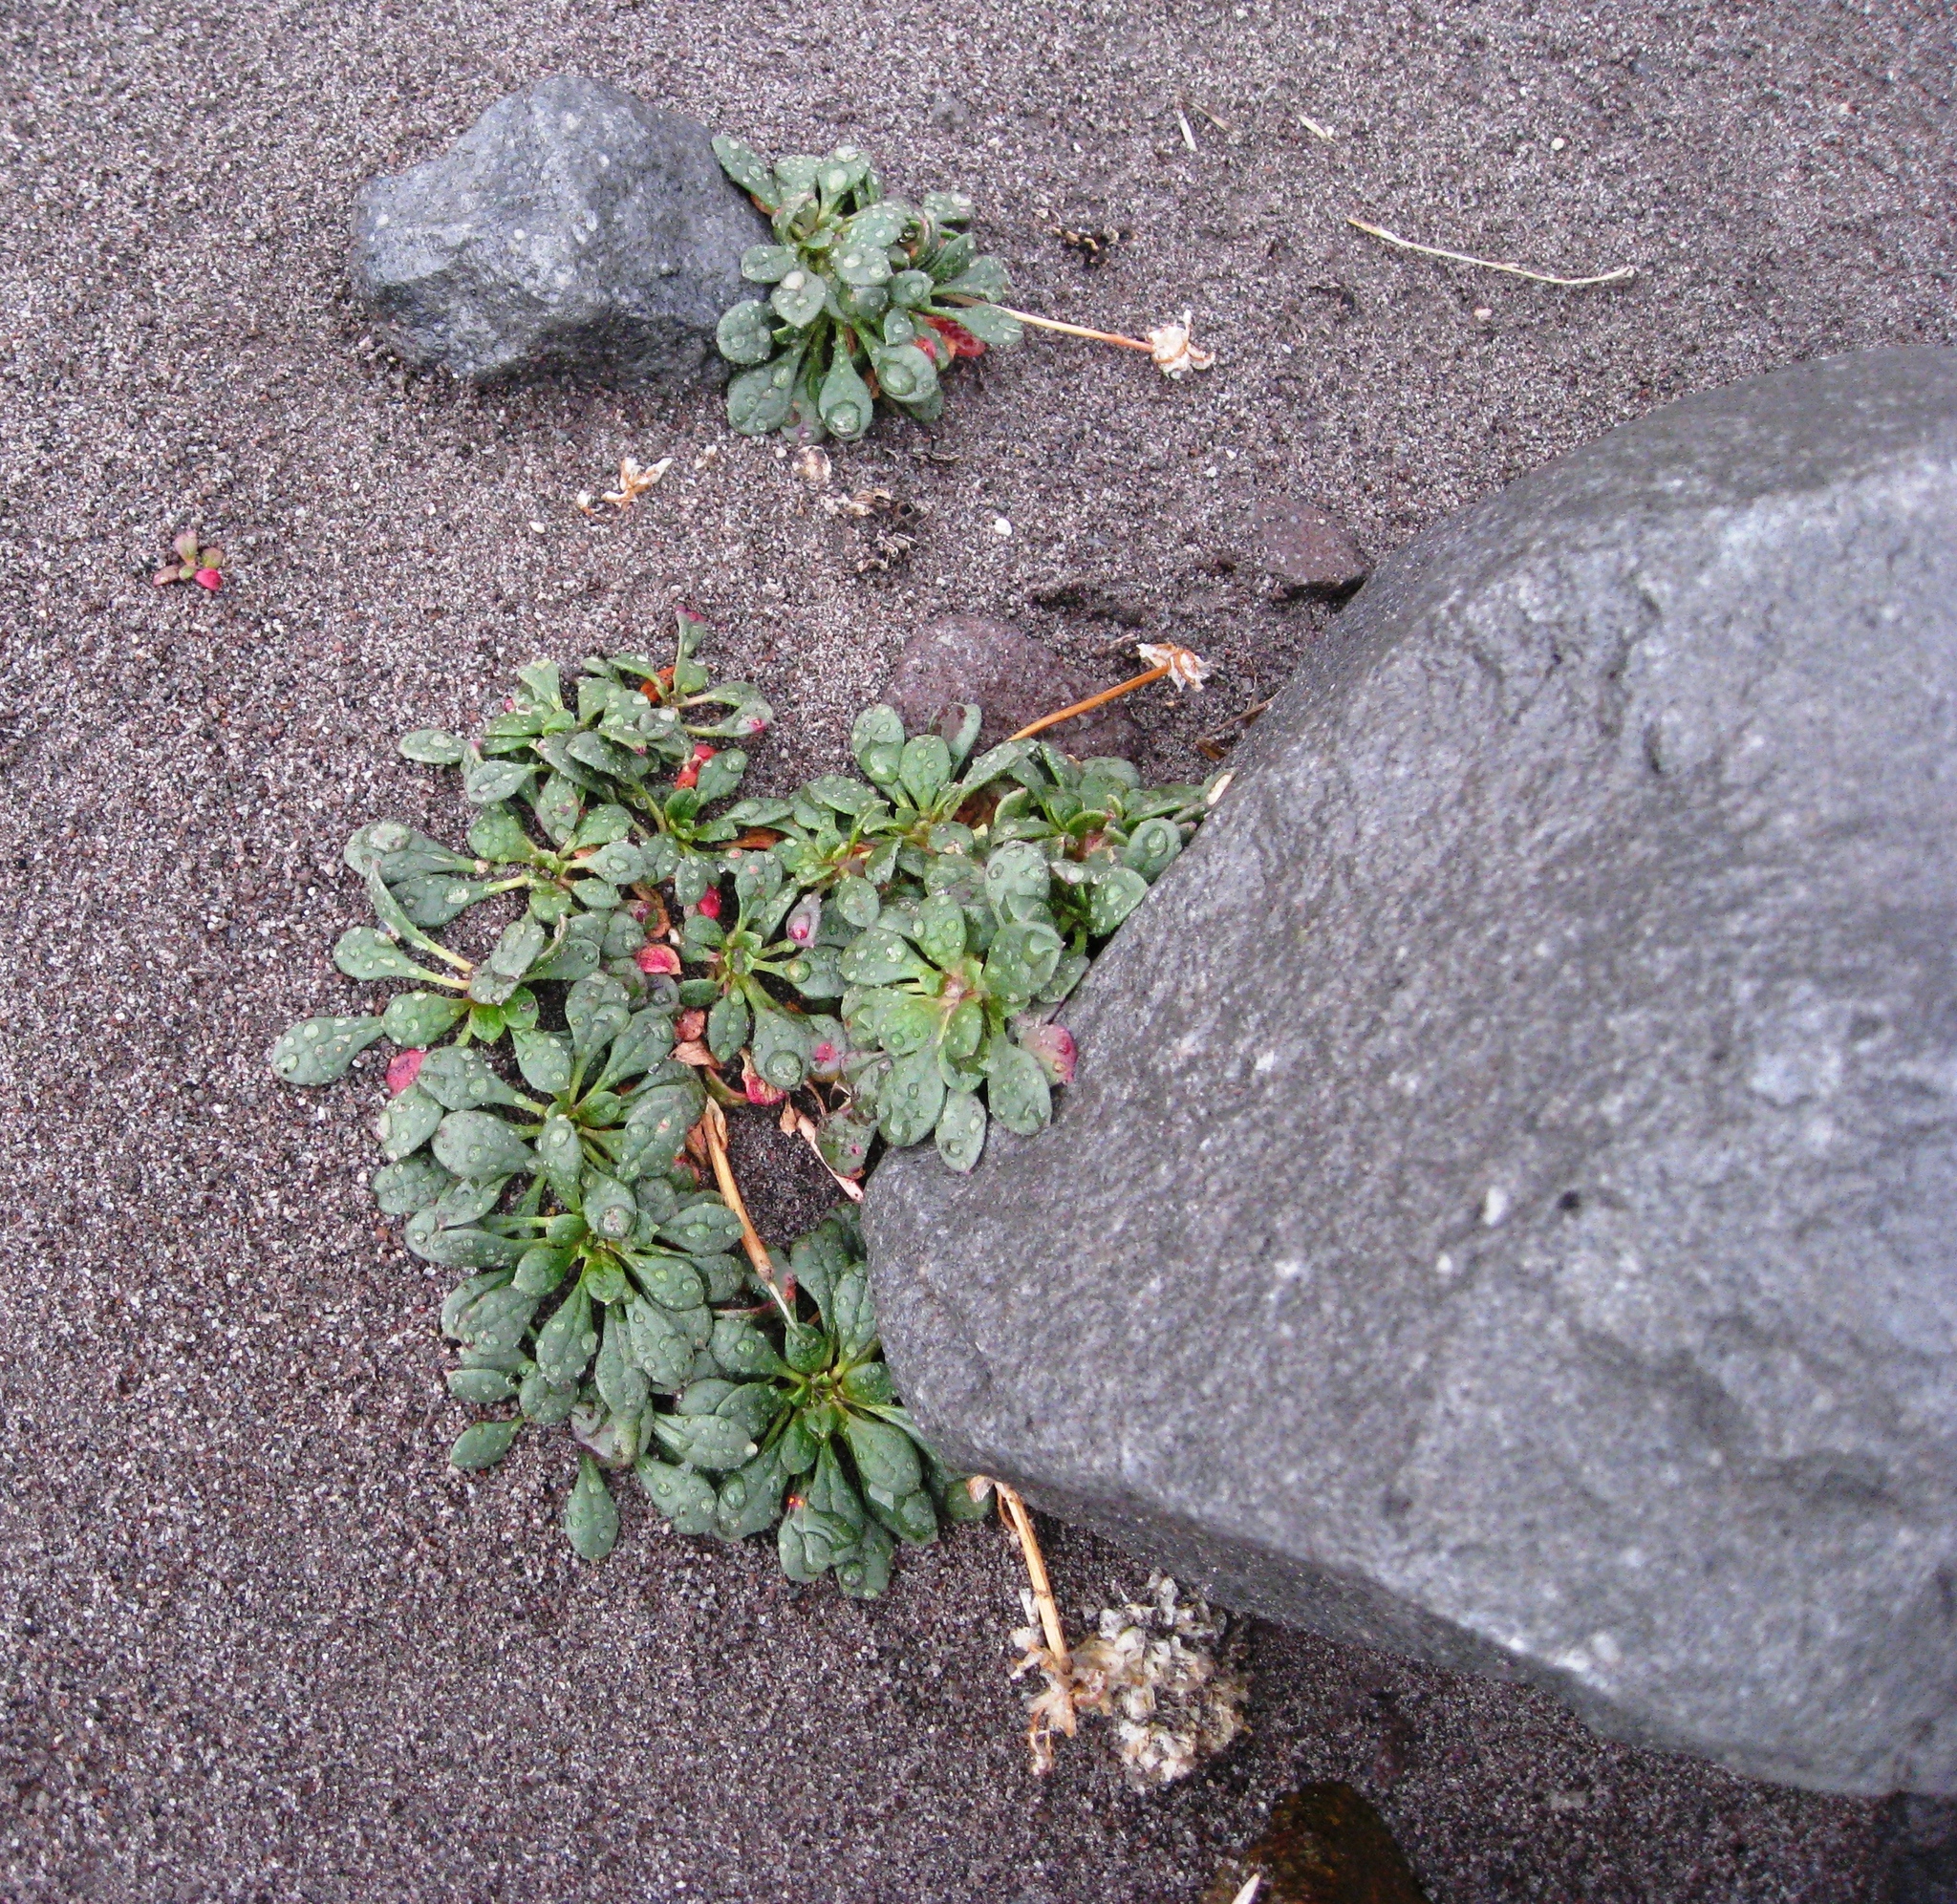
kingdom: Plantae
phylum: Tracheophyta
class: Magnoliopsida
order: Caryophyllales
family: Montiaceae
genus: Calyptridium
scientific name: Calyptridium umbellatum
